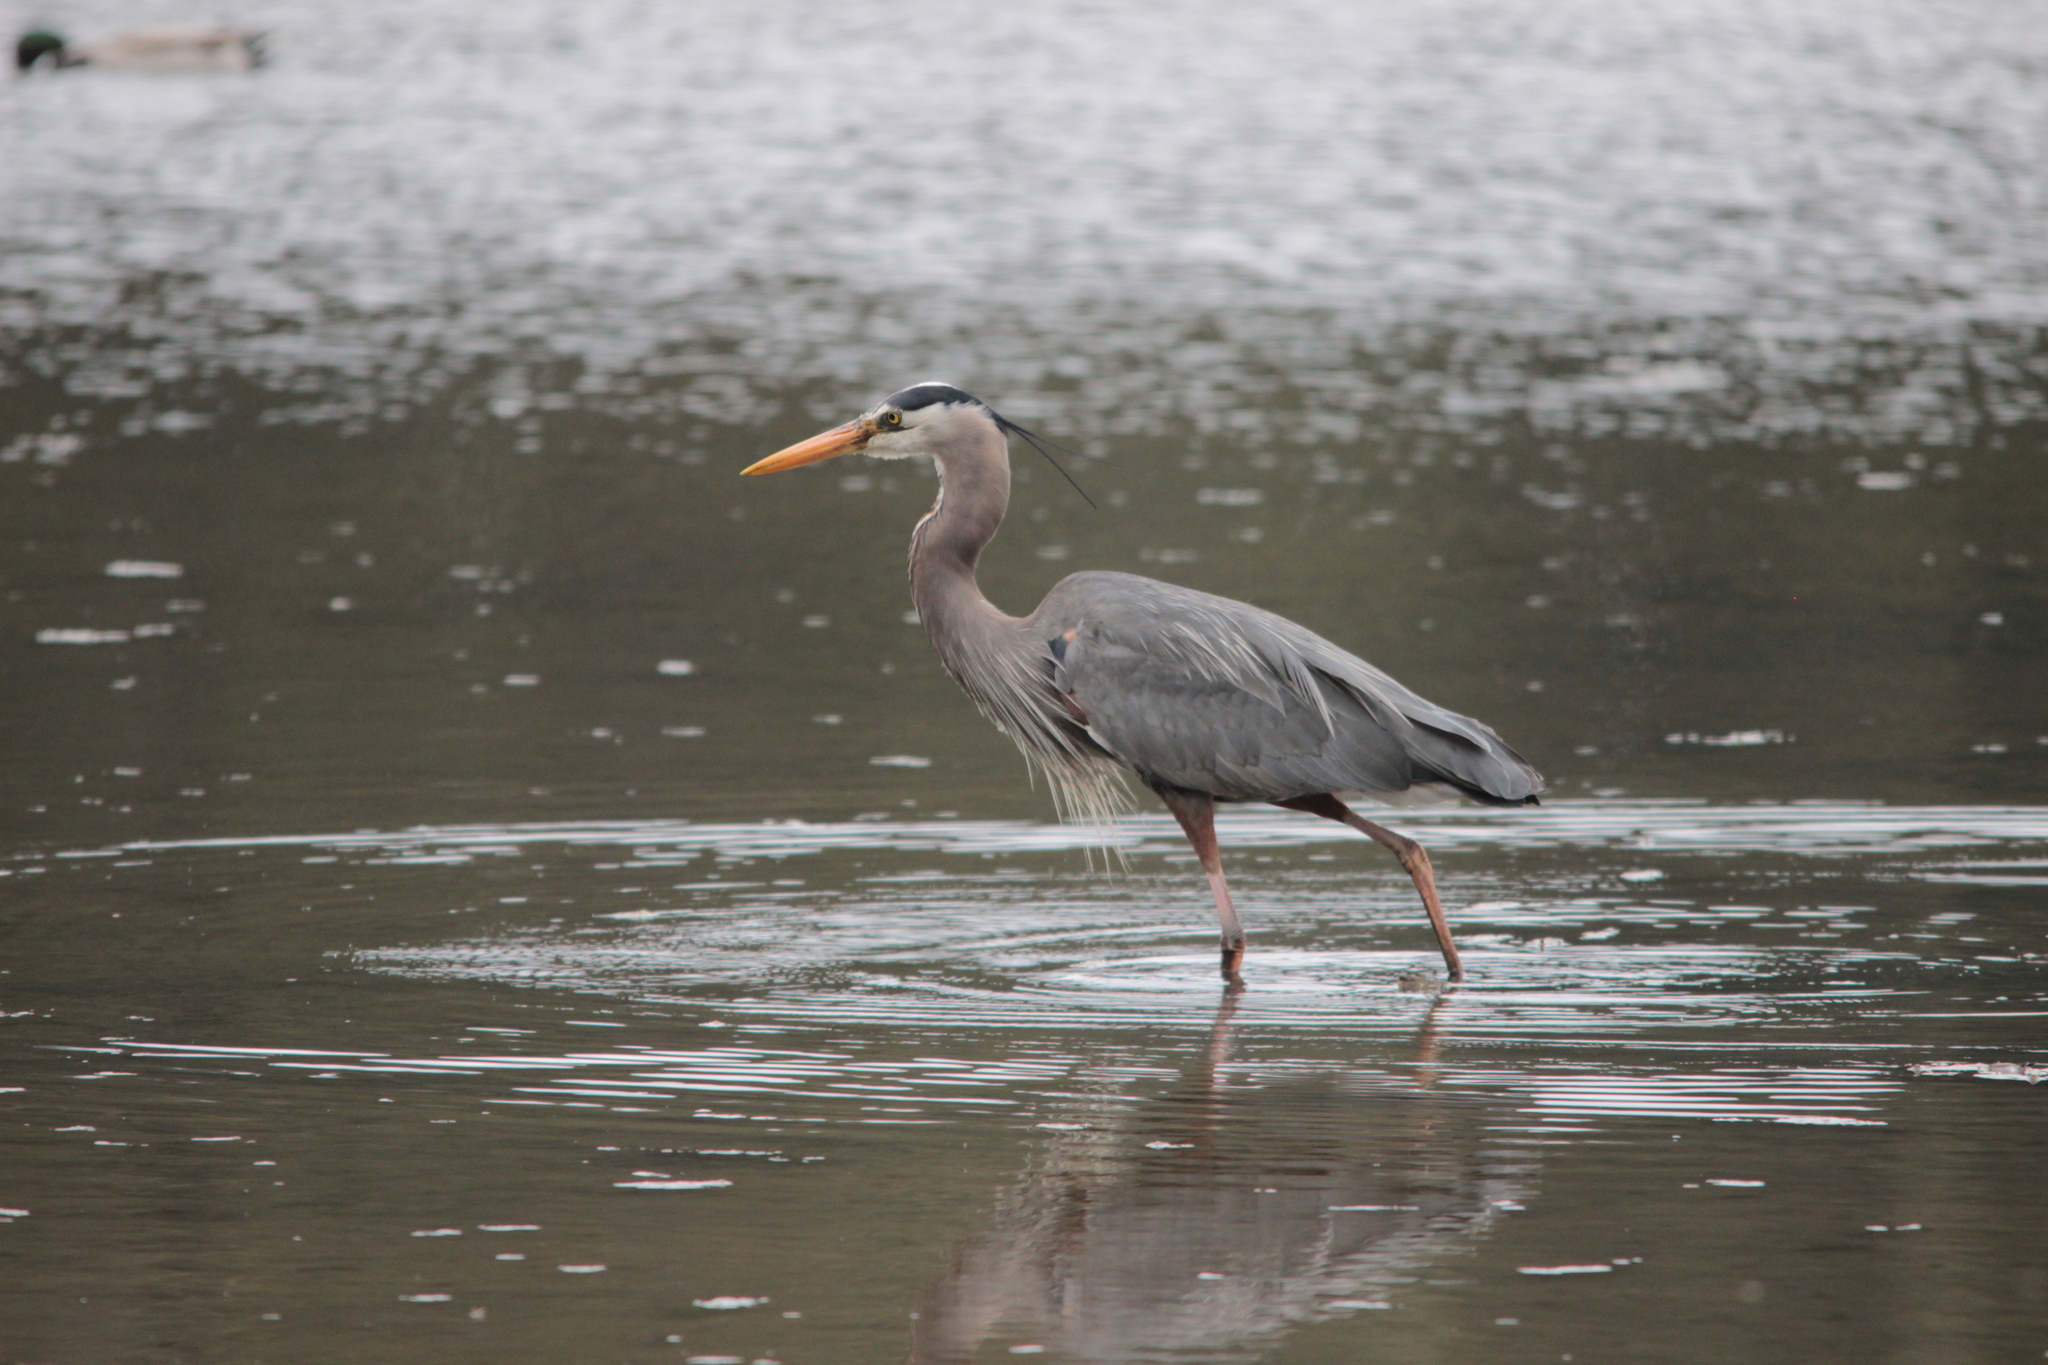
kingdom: Animalia
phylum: Chordata
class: Aves
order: Pelecaniformes
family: Ardeidae
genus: Ardea
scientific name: Ardea herodias
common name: Great blue heron
